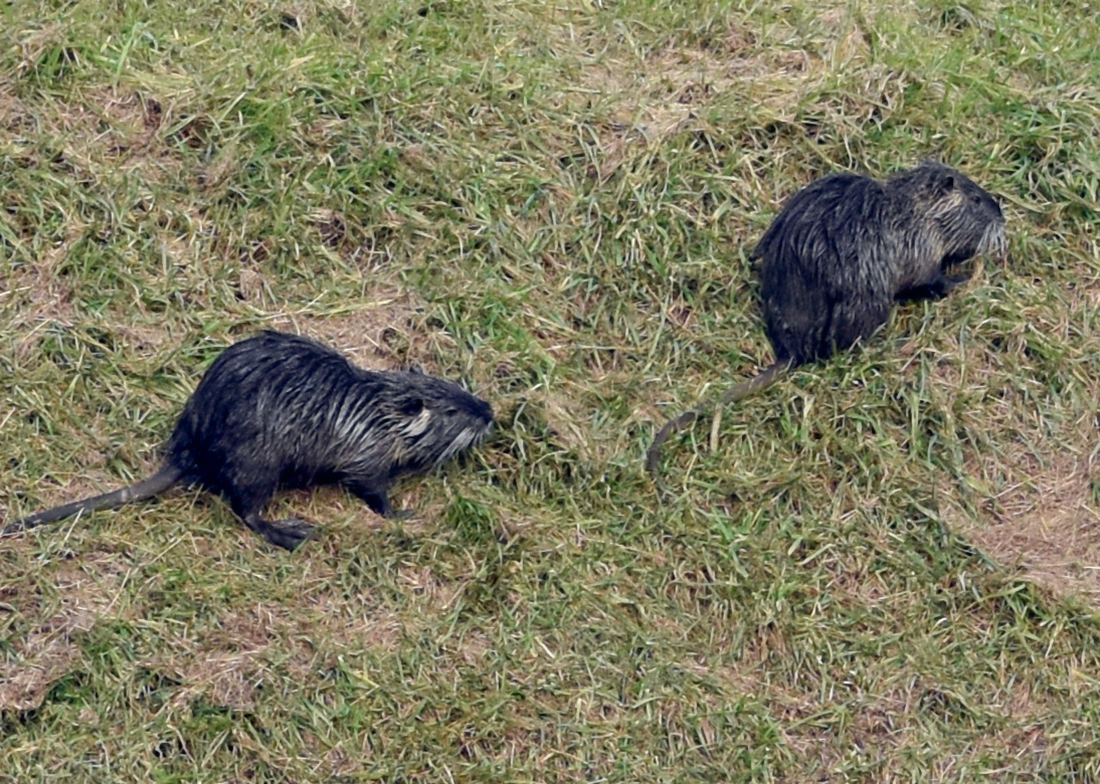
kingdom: Animalia
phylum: Chordata
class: Mammalia
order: Rodentia
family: Myocastoridae
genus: Myocastor
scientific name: Myocastor coypus
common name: Coypu
